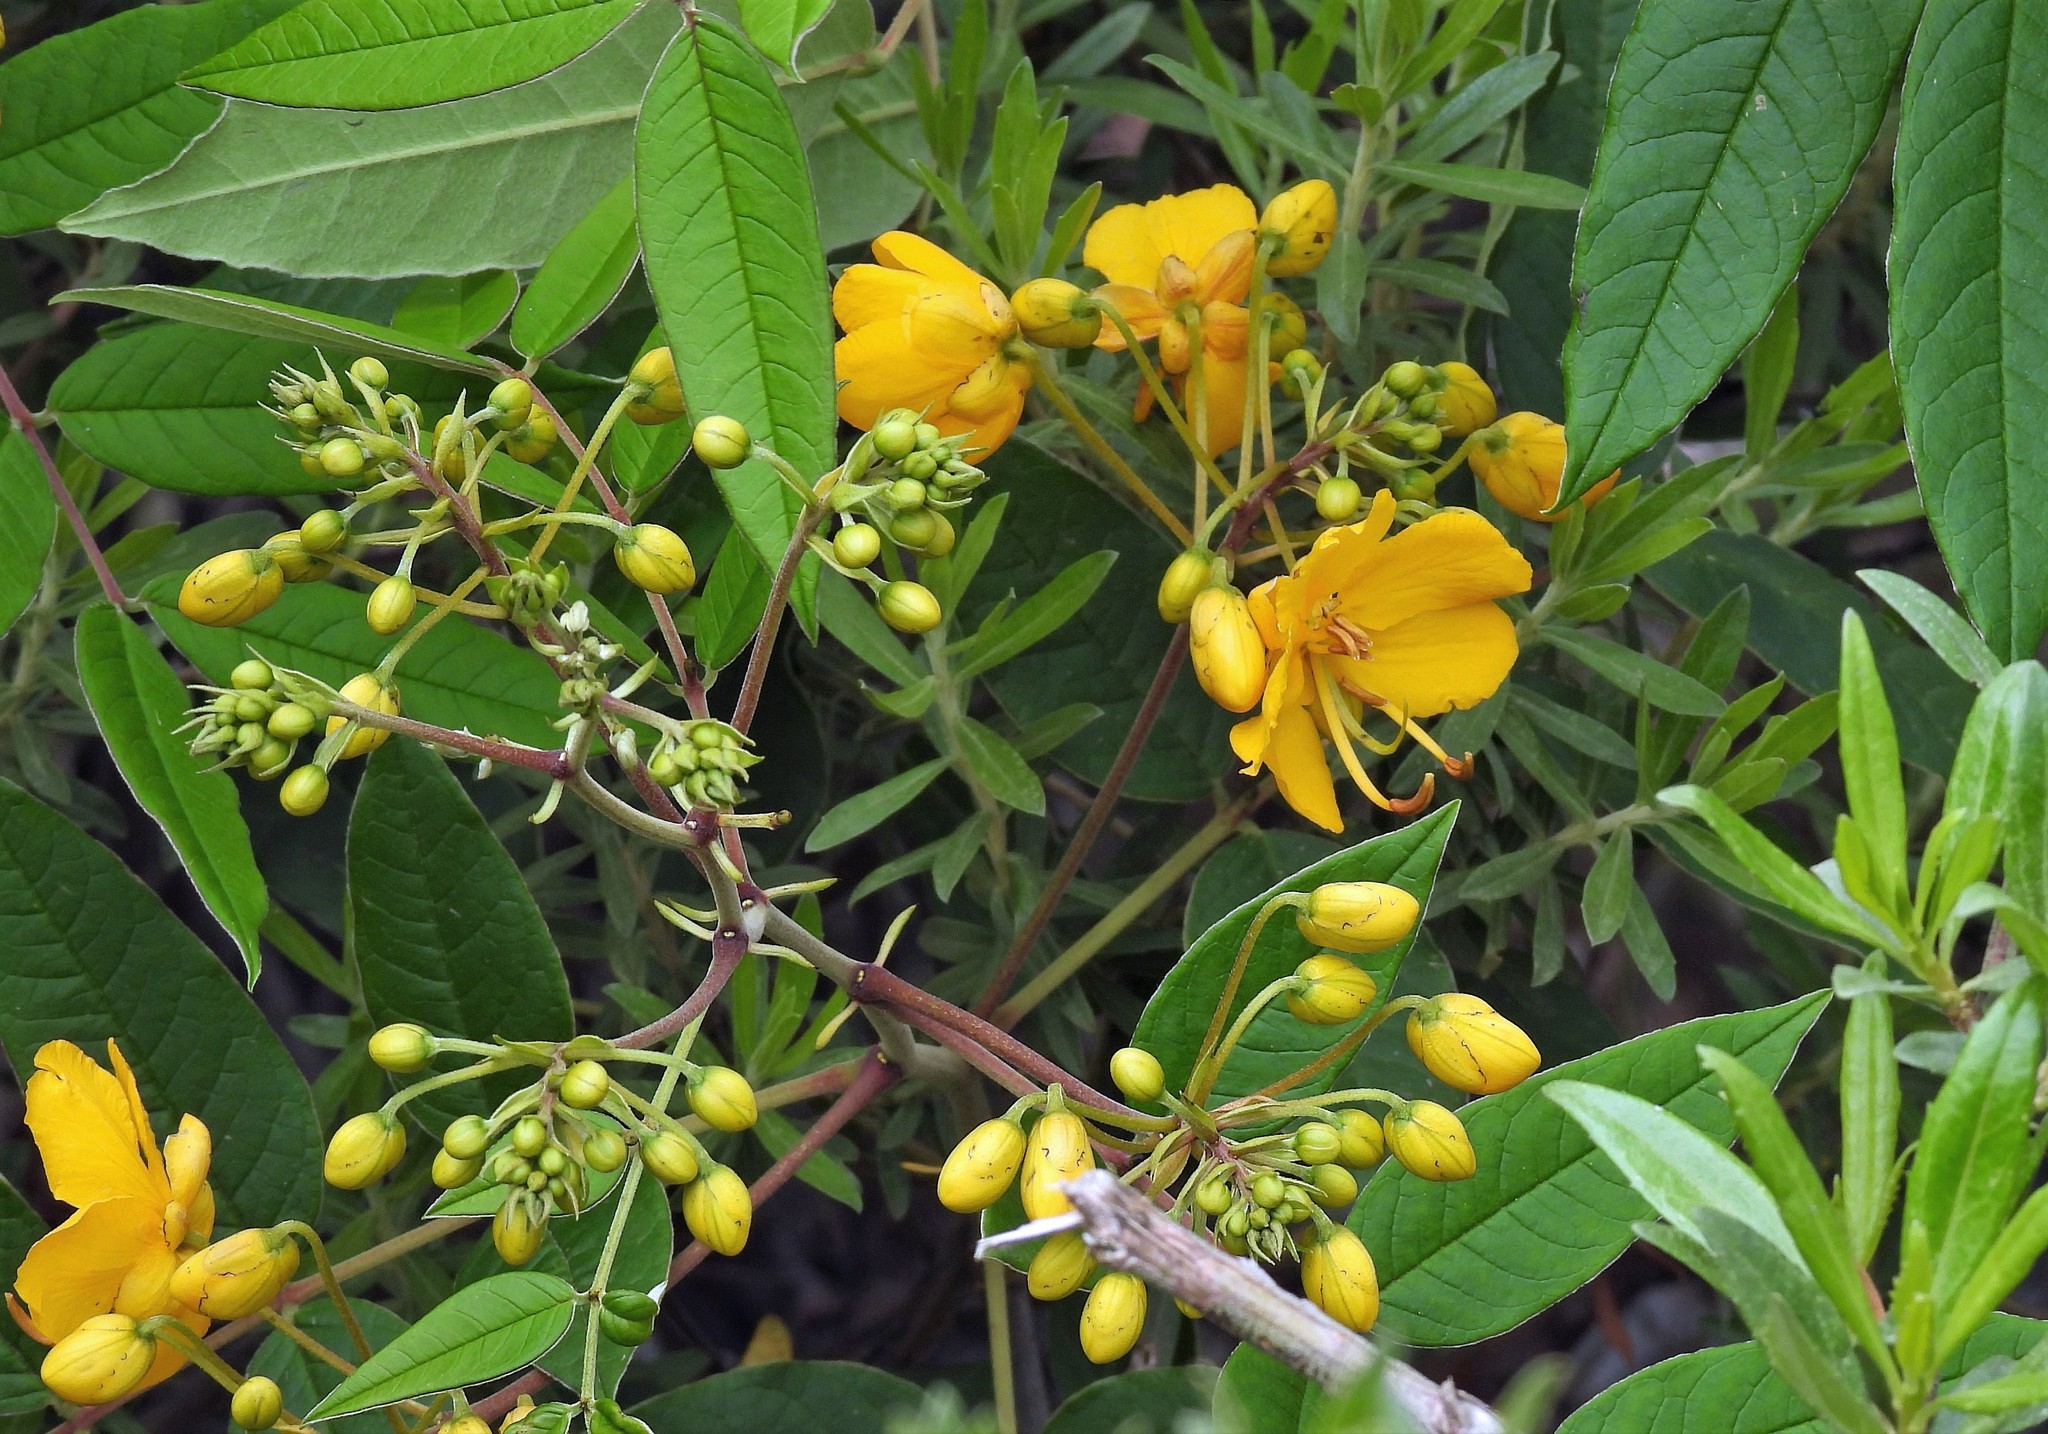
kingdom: Plantae
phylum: Tracheophyta
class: Magnoliopsida
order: Fabales
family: Fabaceae
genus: Senna
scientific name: Senna burkartiana
